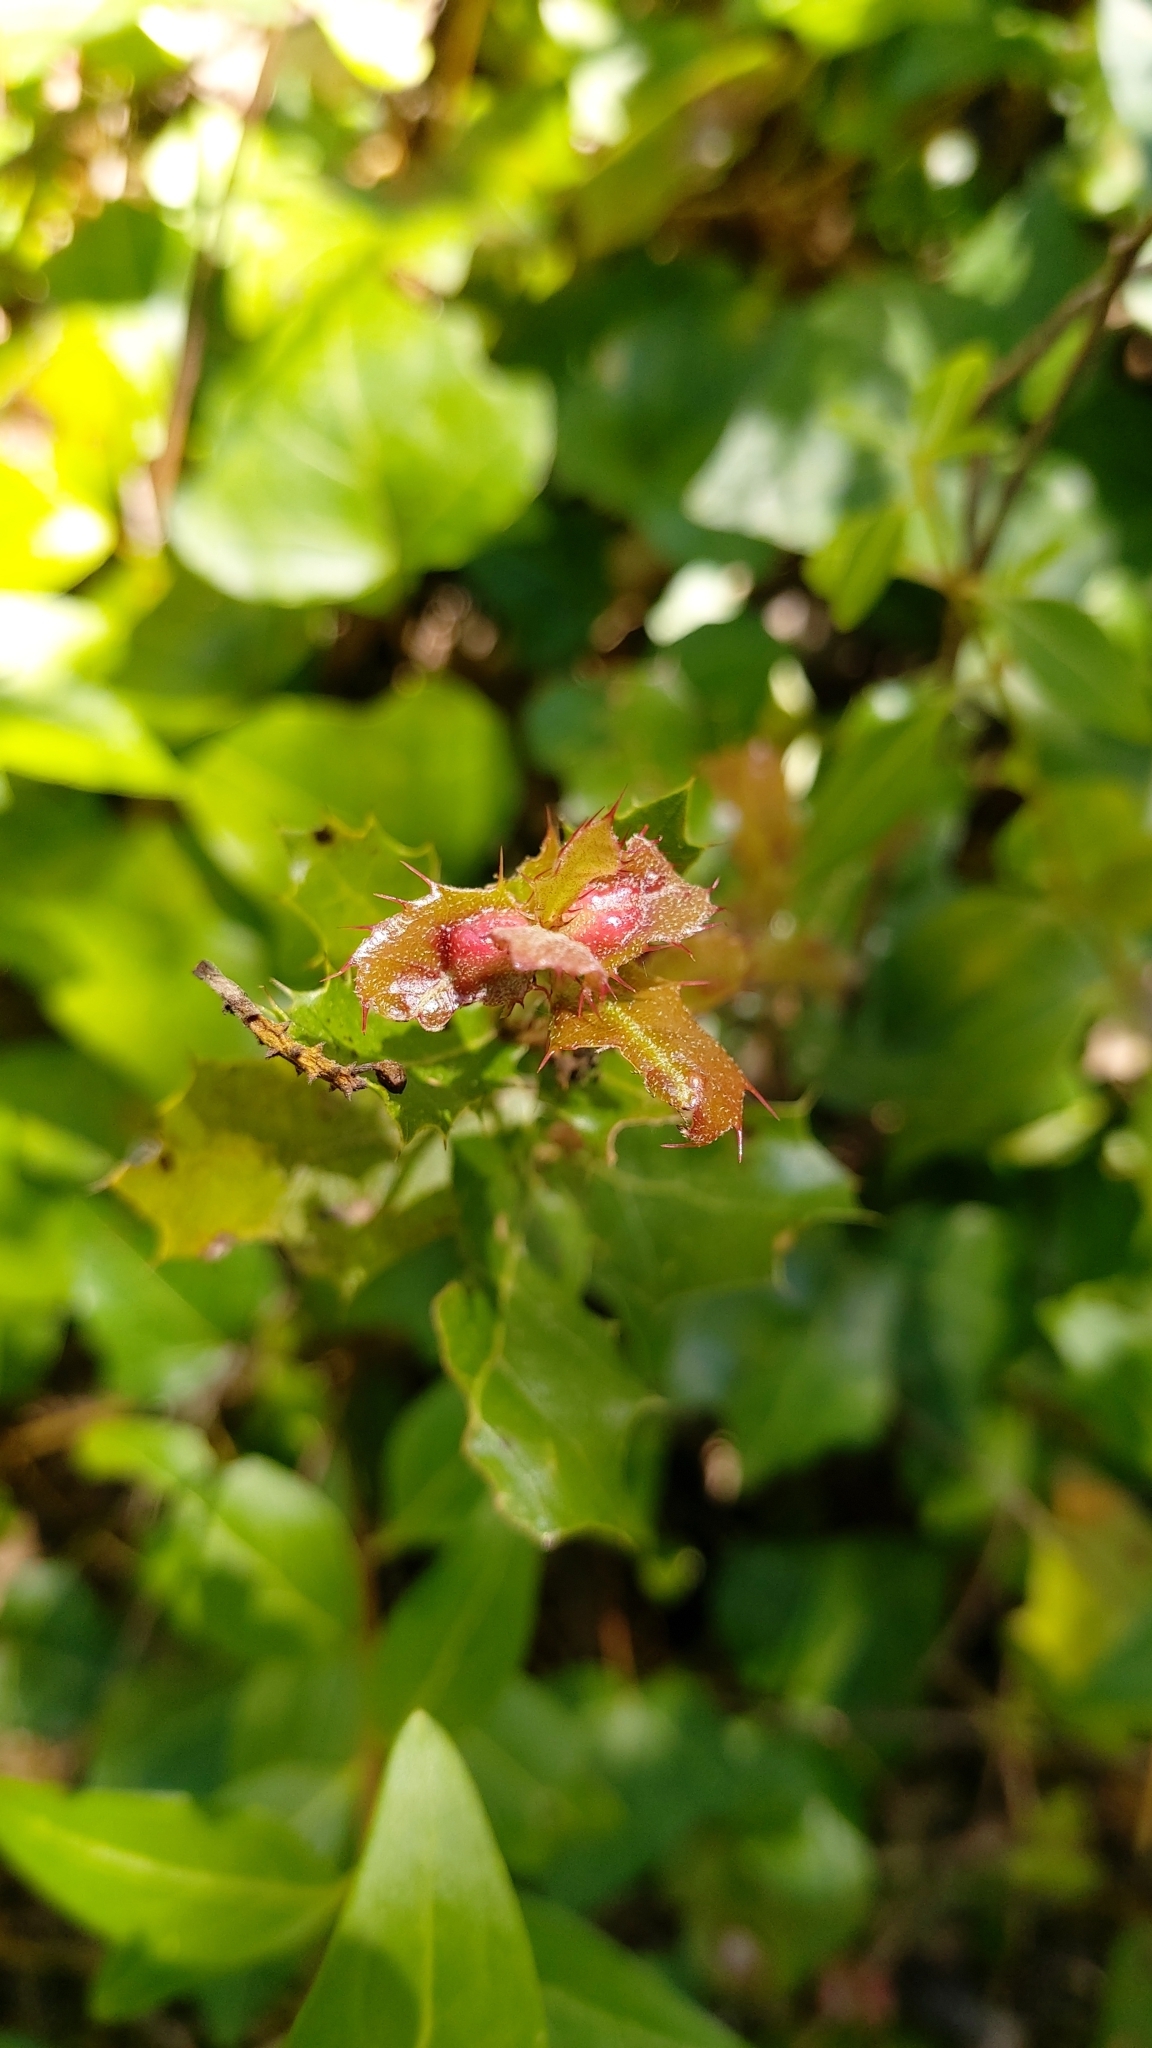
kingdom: Animalia
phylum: Arthropoda
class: Insecta
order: Hymenoptera
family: Cynipidae
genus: Plagiotrochus
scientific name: Plagiotrochus quercusilicis
